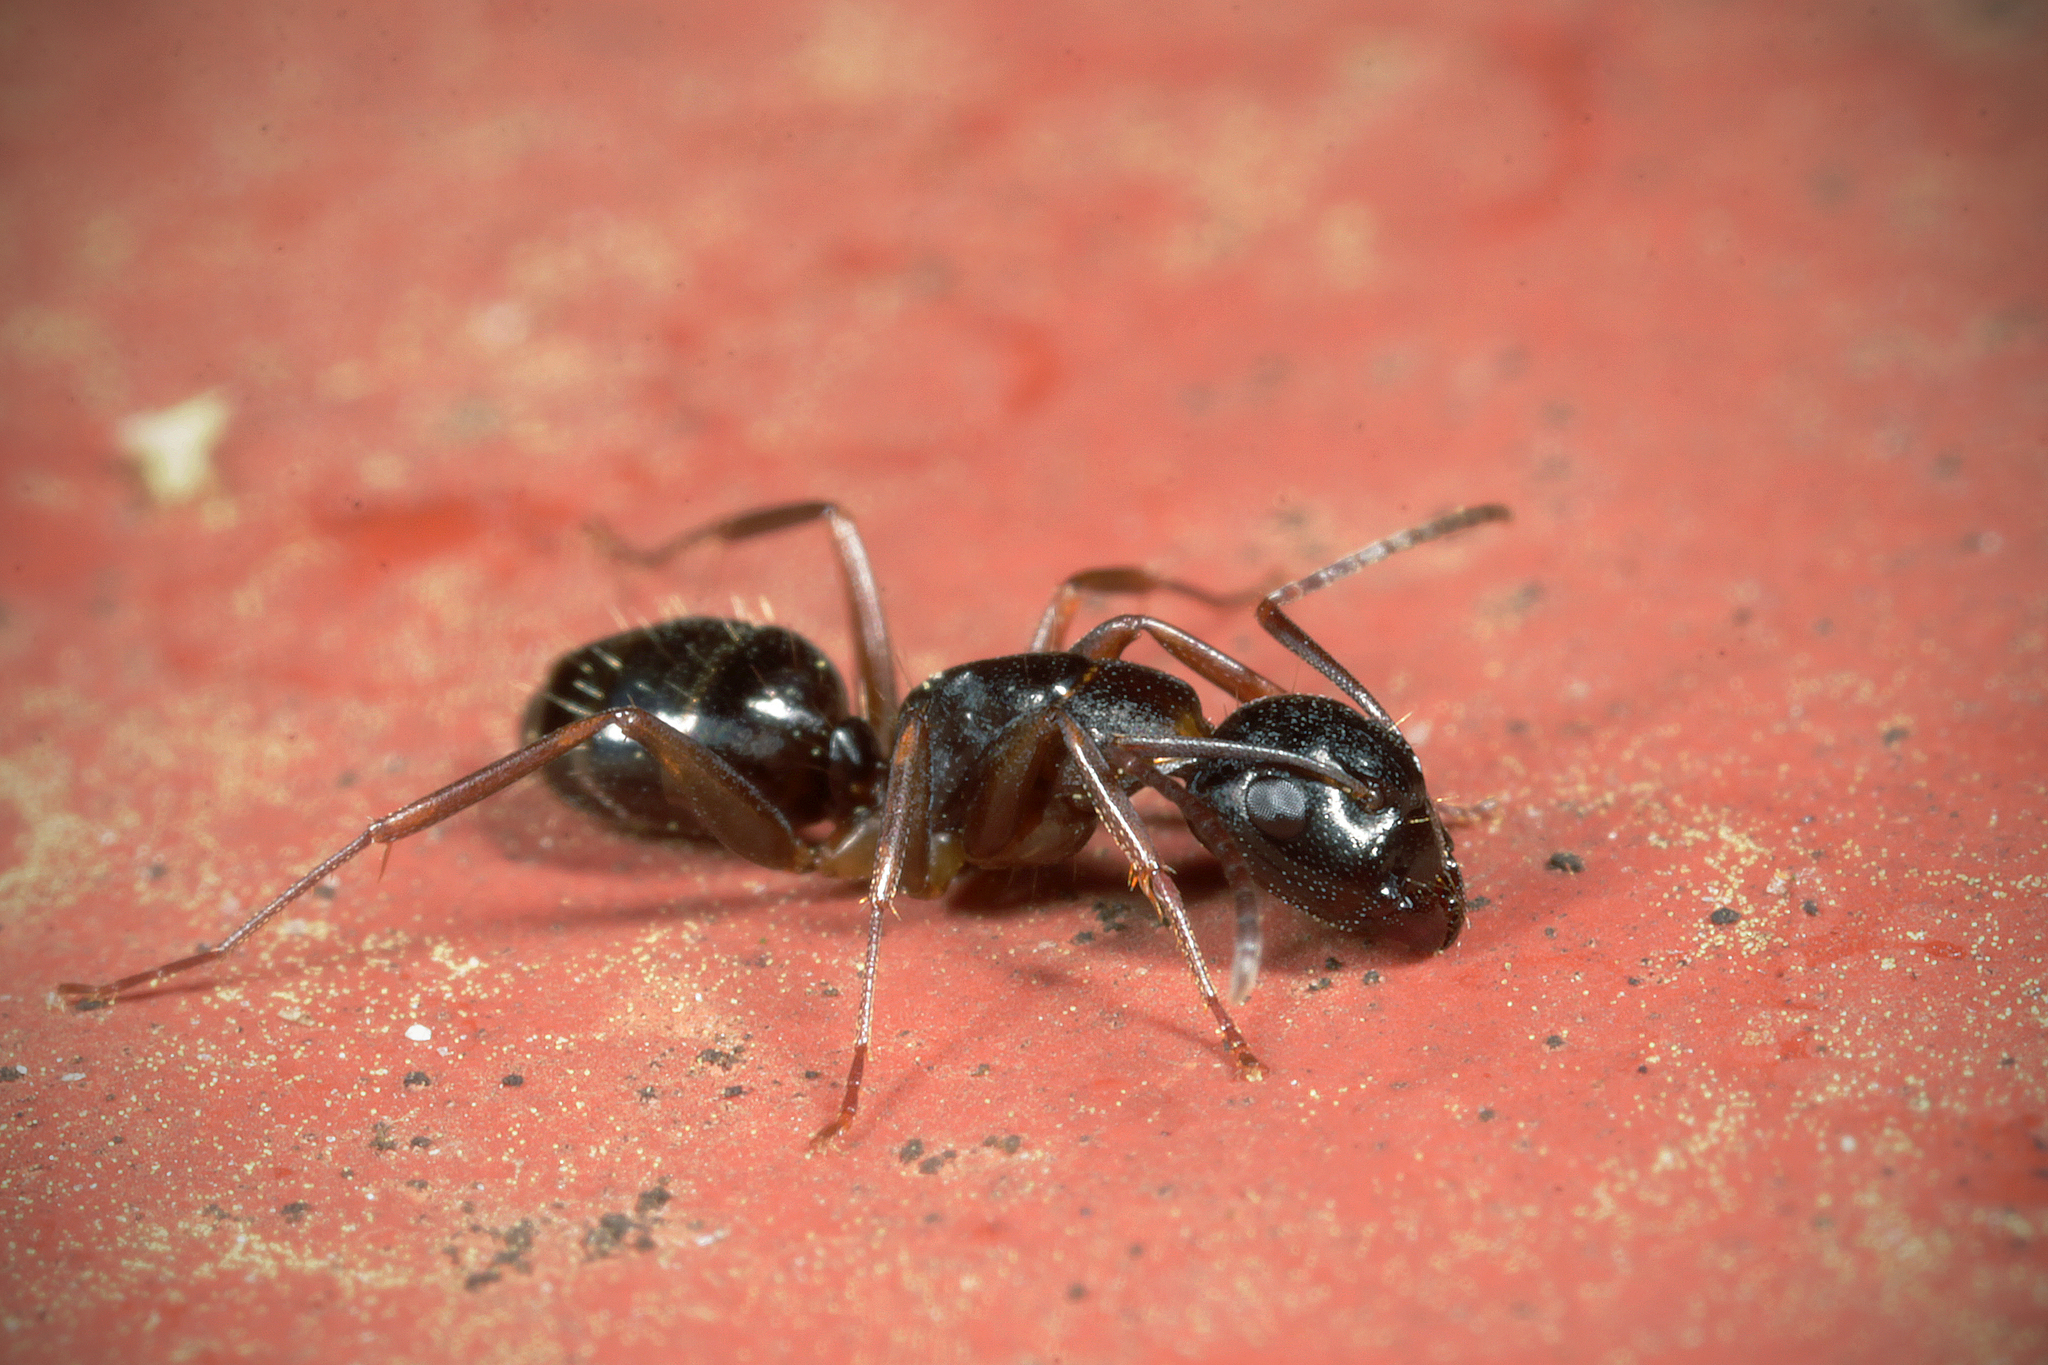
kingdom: Animalia
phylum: Arthropoda
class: Insecta
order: Hymenoptera
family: Formicidae
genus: Camponotus
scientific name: Camponotus fallax
